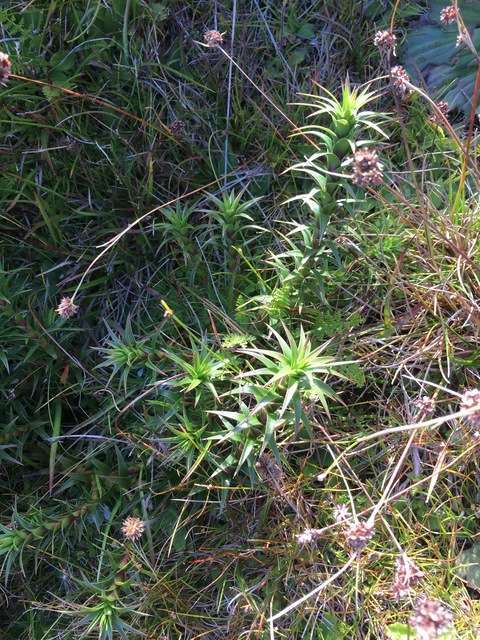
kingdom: Plantae
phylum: Tracheophyta
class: Magnoliopsida
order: Ericales
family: Ericaceae
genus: Dracophyllum
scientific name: Dracophyllum continentis
